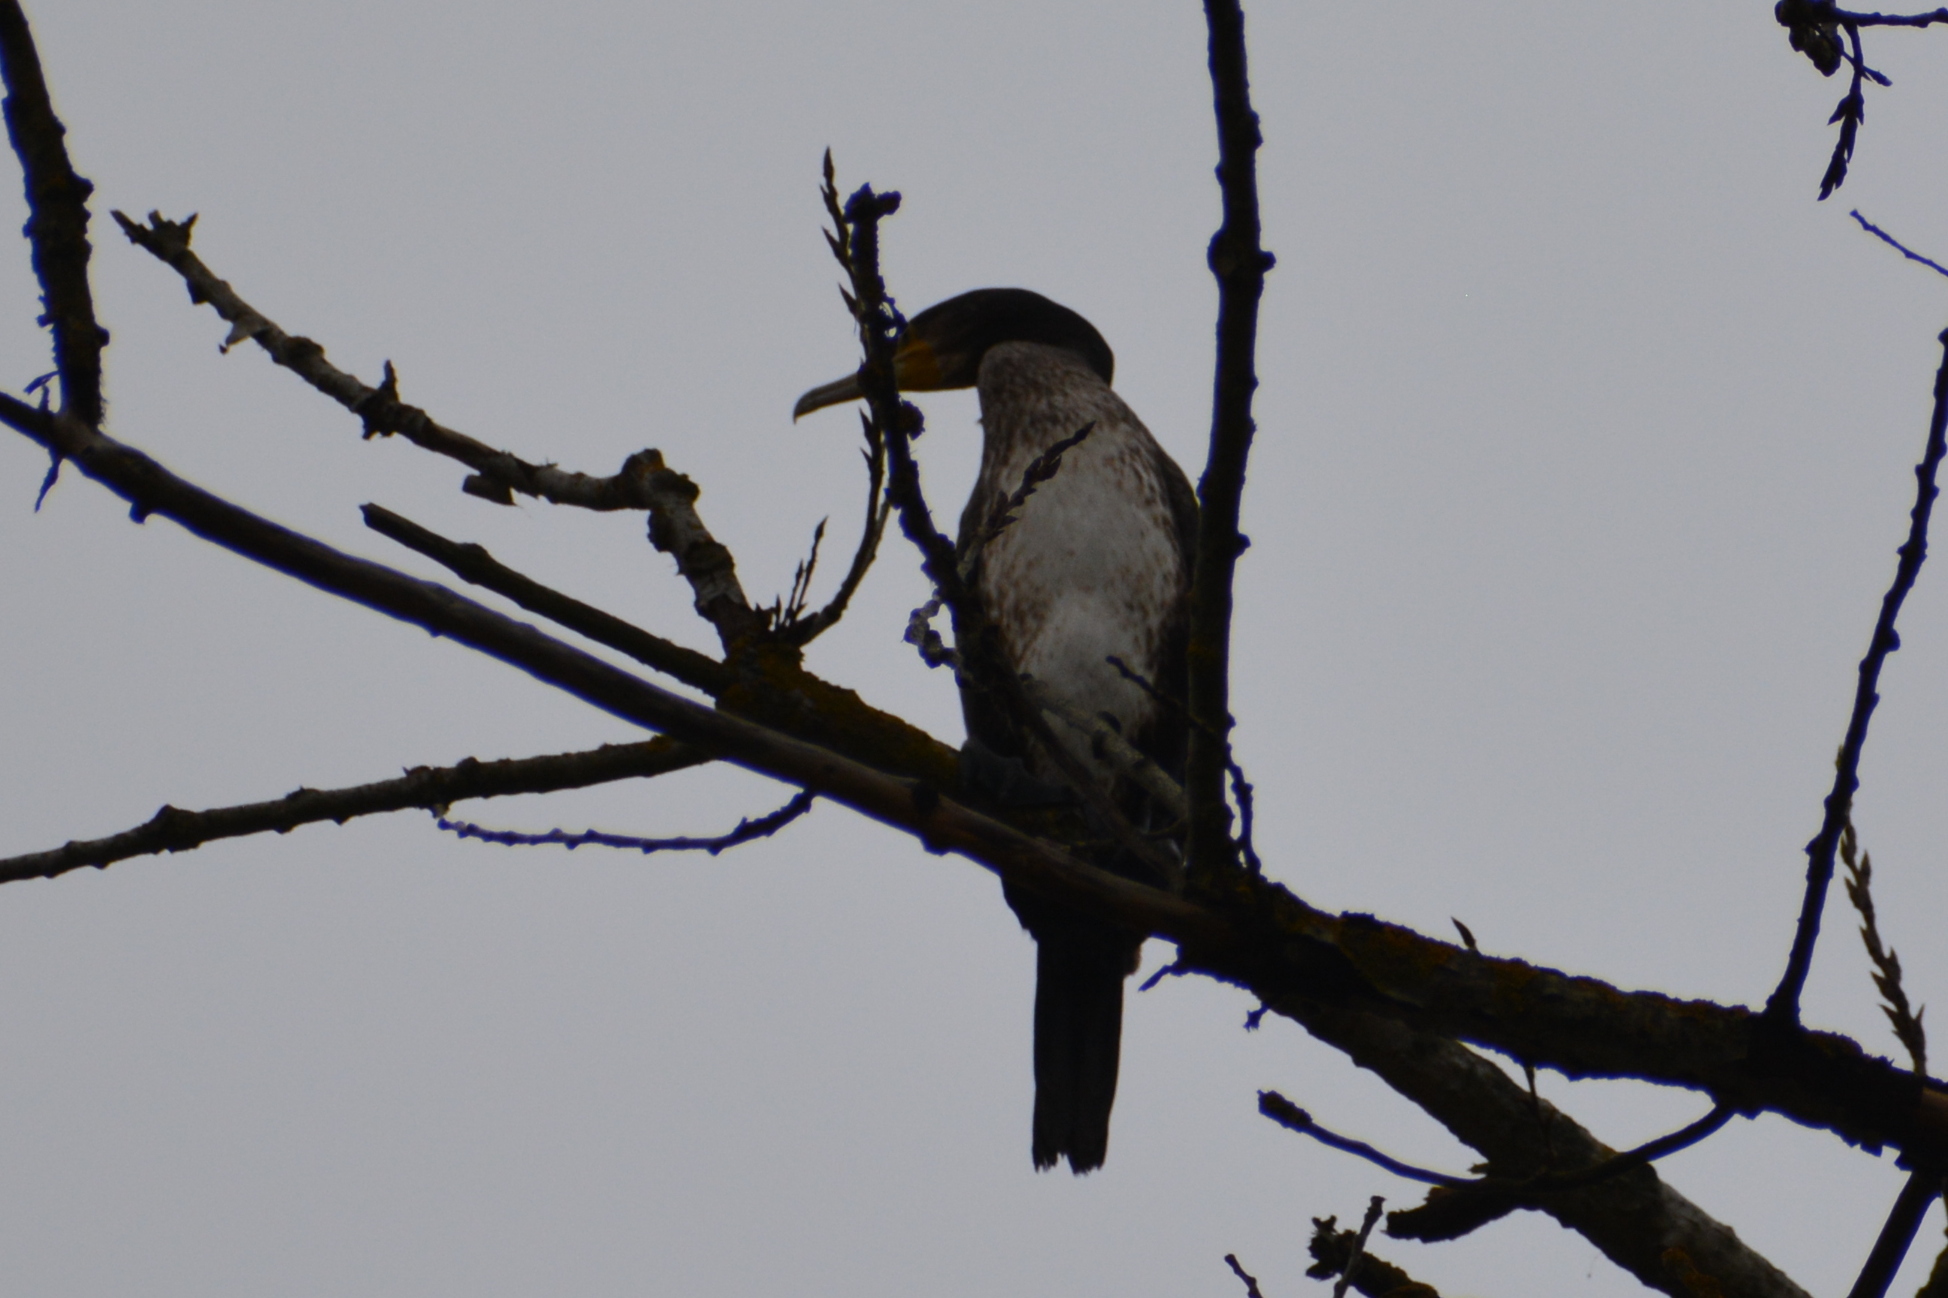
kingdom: Animalia
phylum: Chordata
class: Aves
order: Suliformes
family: Phalacrocoracidae
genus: Phalacrocorax
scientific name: Phalacrocorax carbo
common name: Great cormorant
